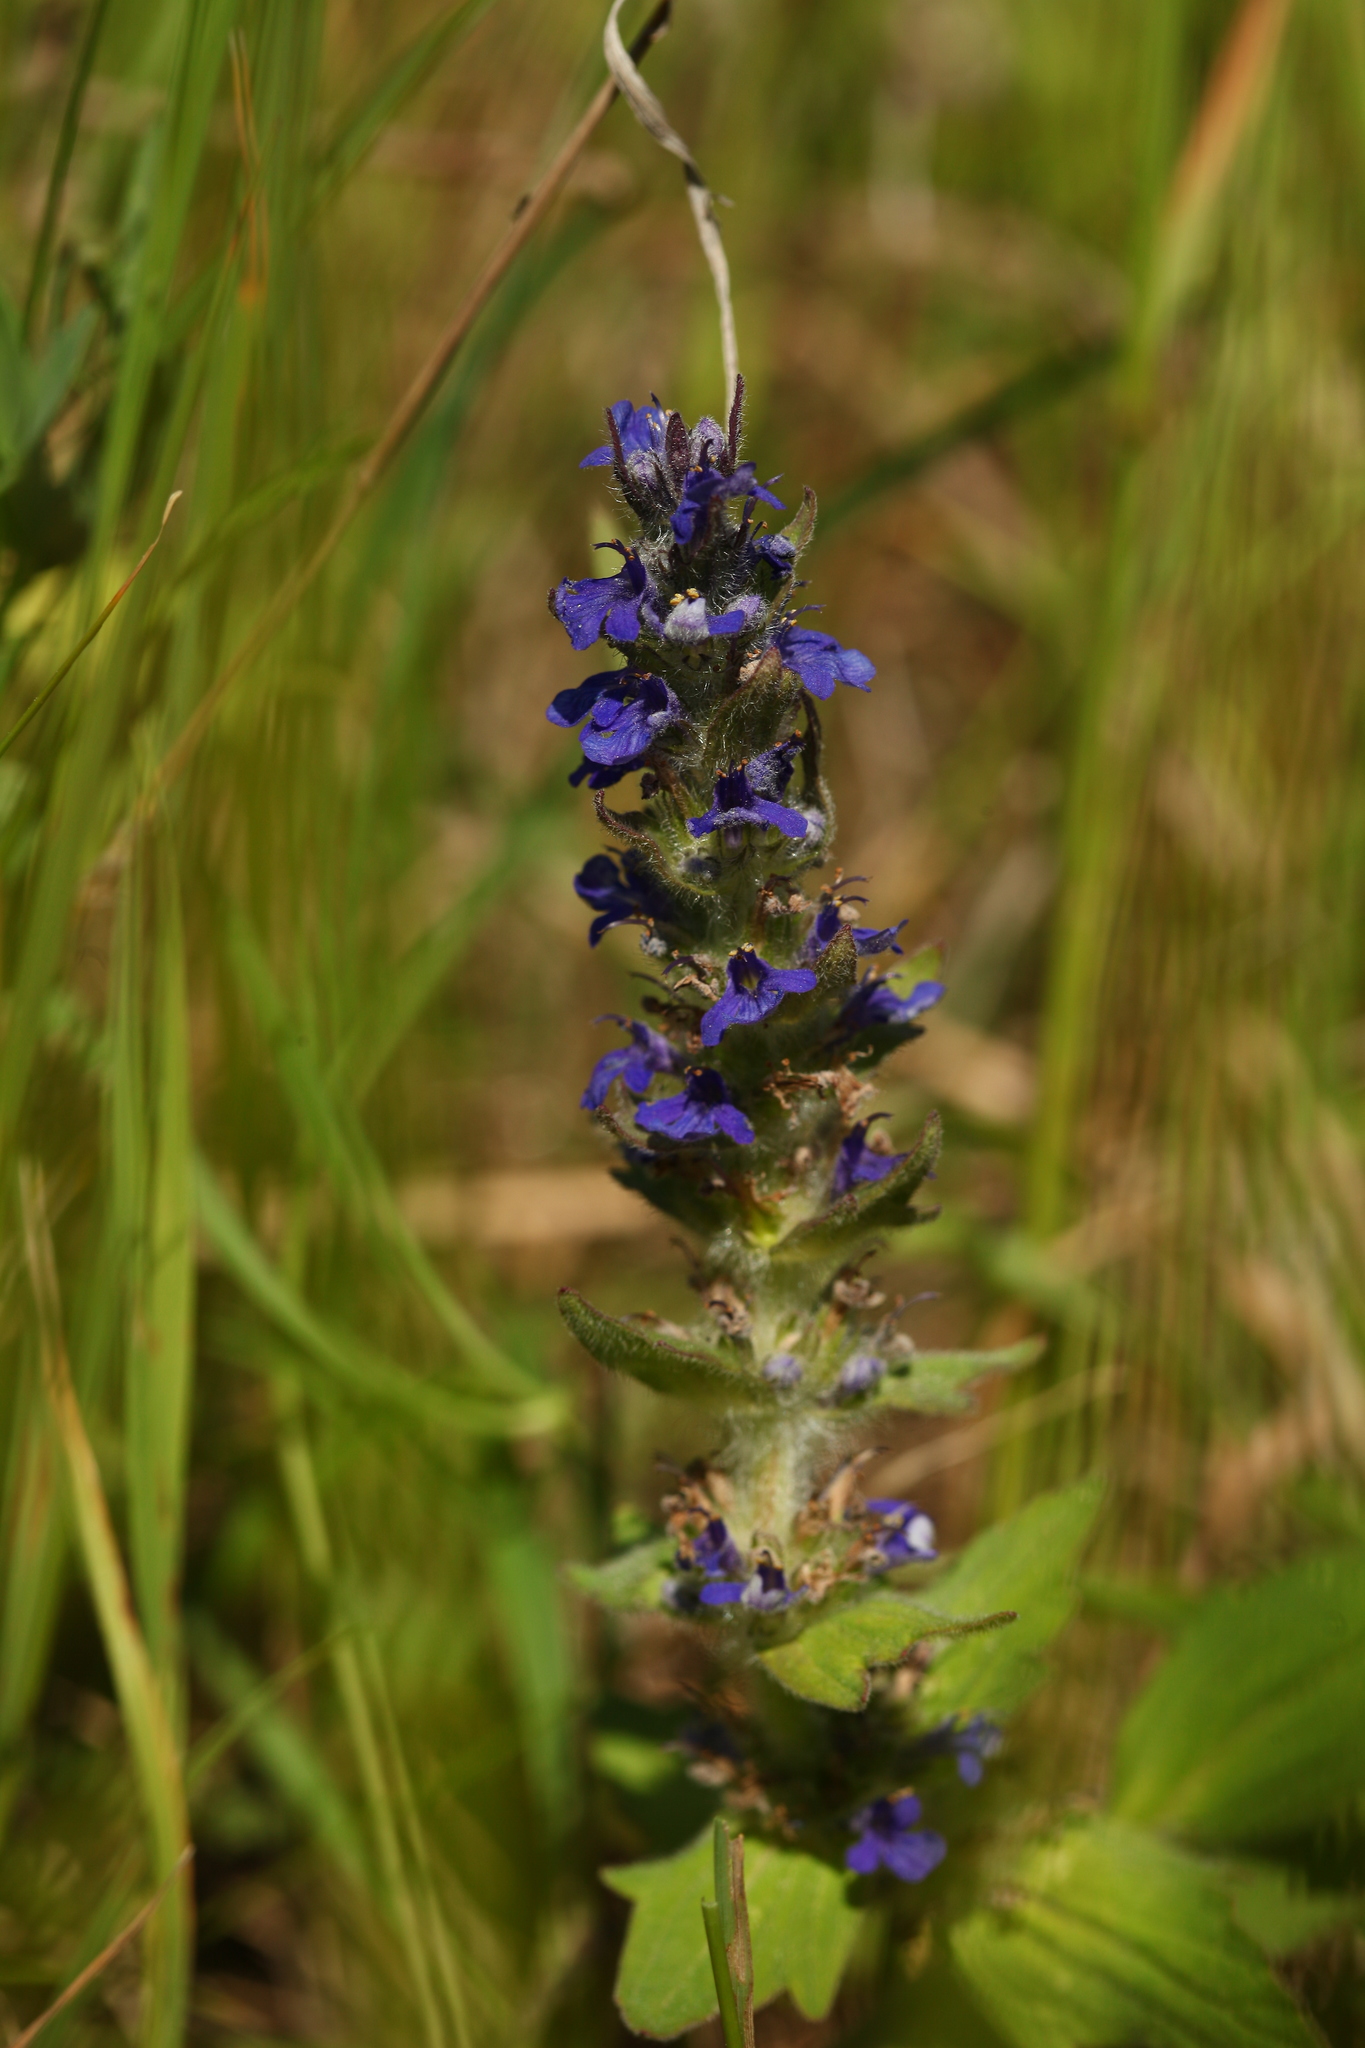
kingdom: Plantae
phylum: Tracheophyta
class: Magnoliopsida
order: Lamiales
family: Lamiaceae
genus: Ajuga
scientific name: Ajuga genevensis
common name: Blue bugle
